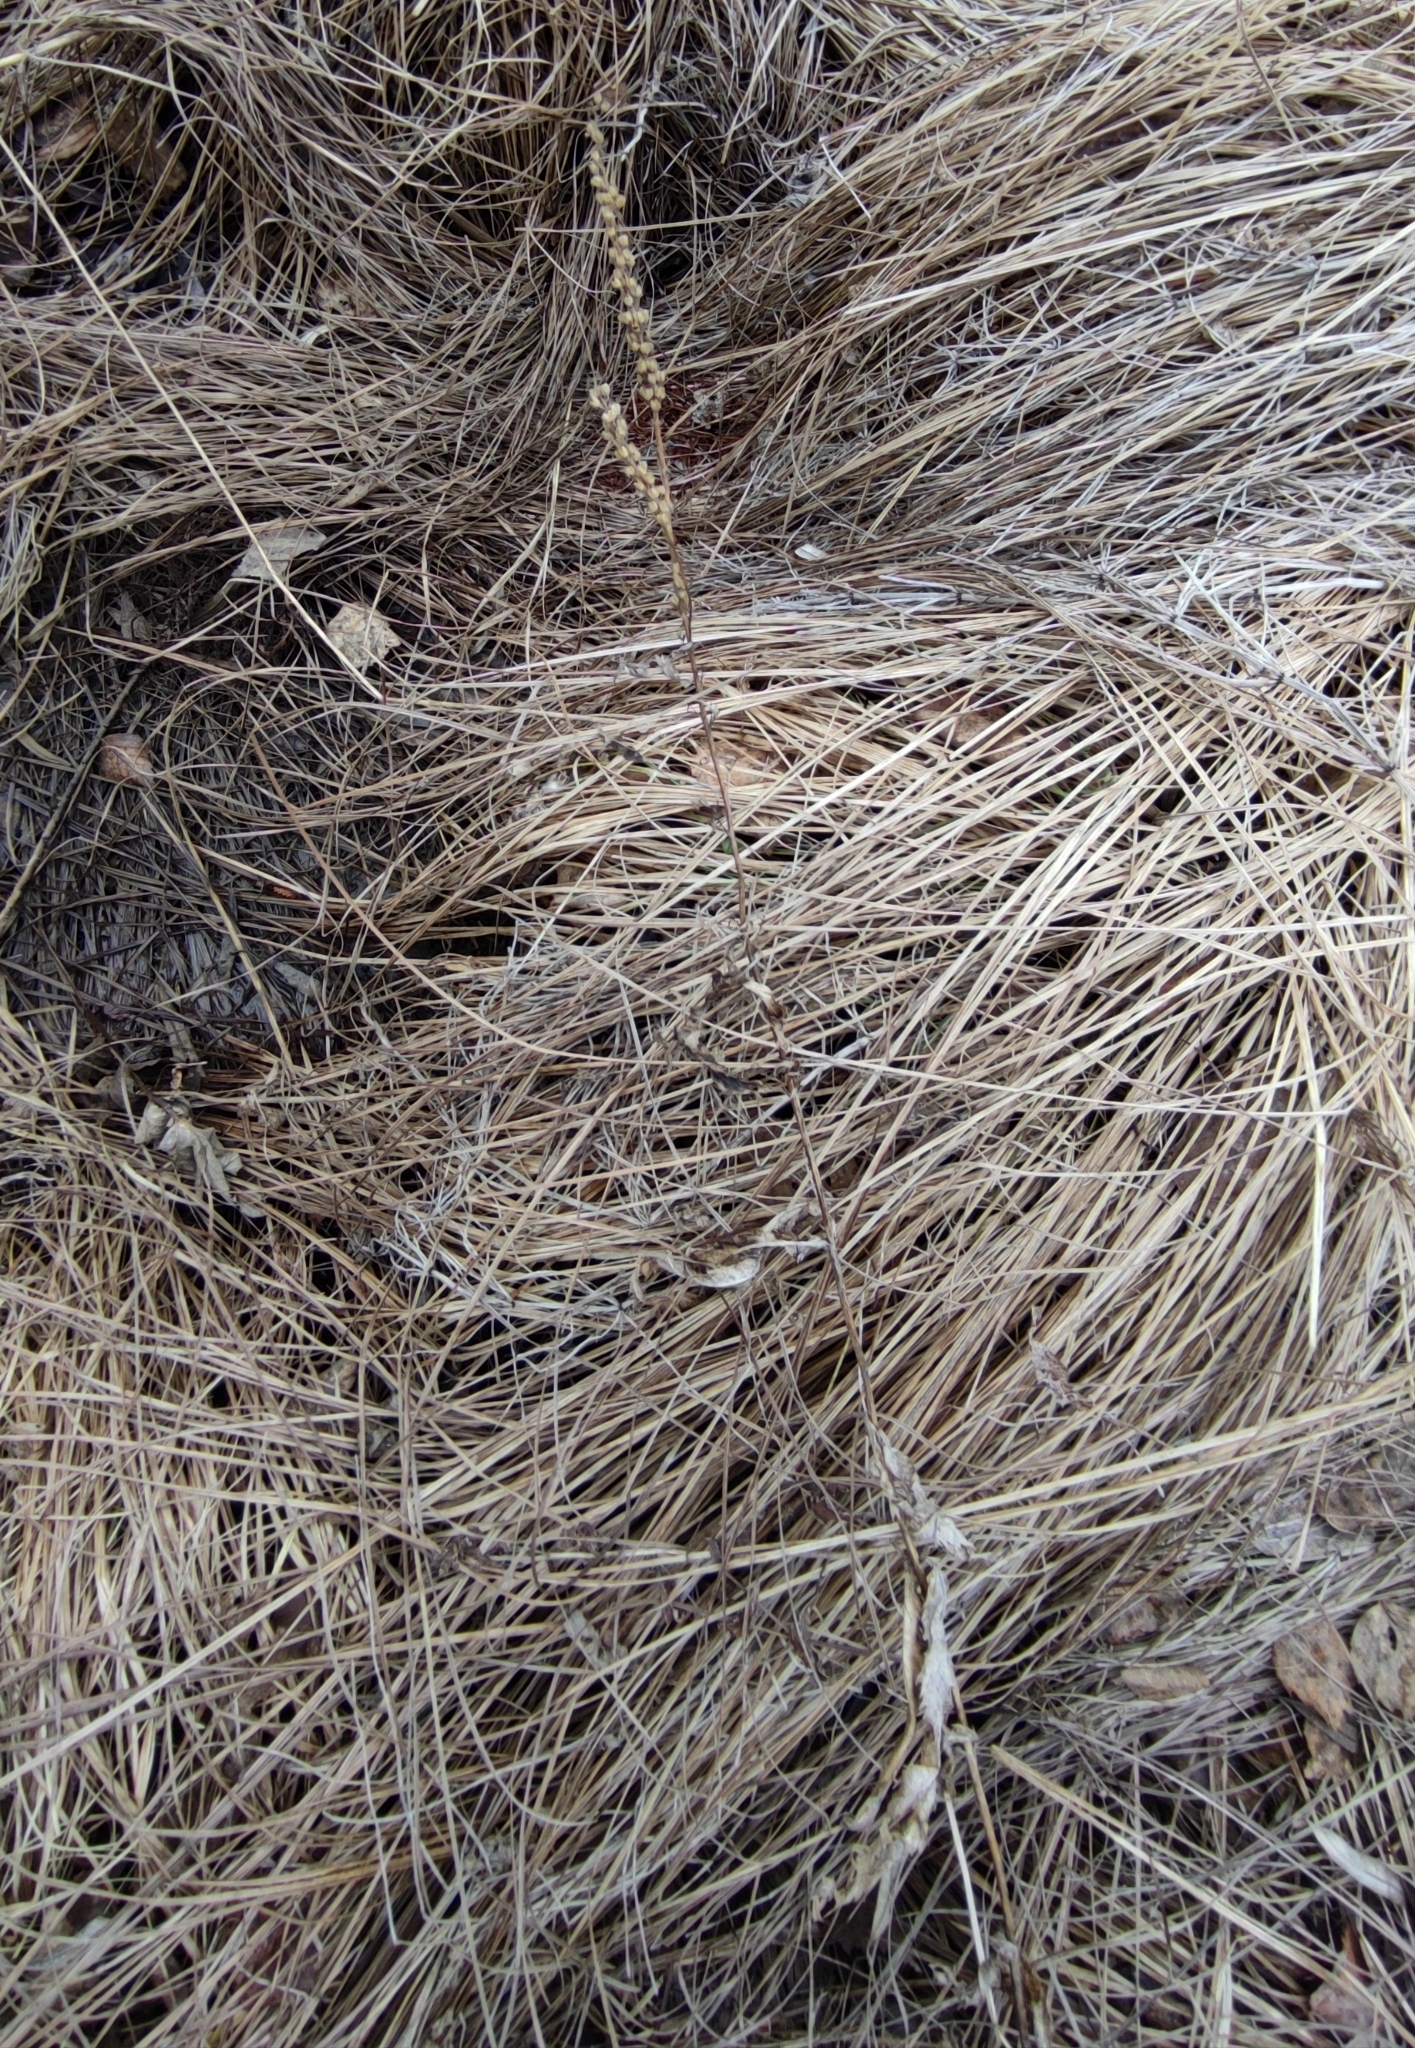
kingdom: Plantae
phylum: Tracheophyta
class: Magnoliopsida
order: Lamiales
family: Plantaginaceae
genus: Veronica
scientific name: Veronica longifolia
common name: Garden speedwell
